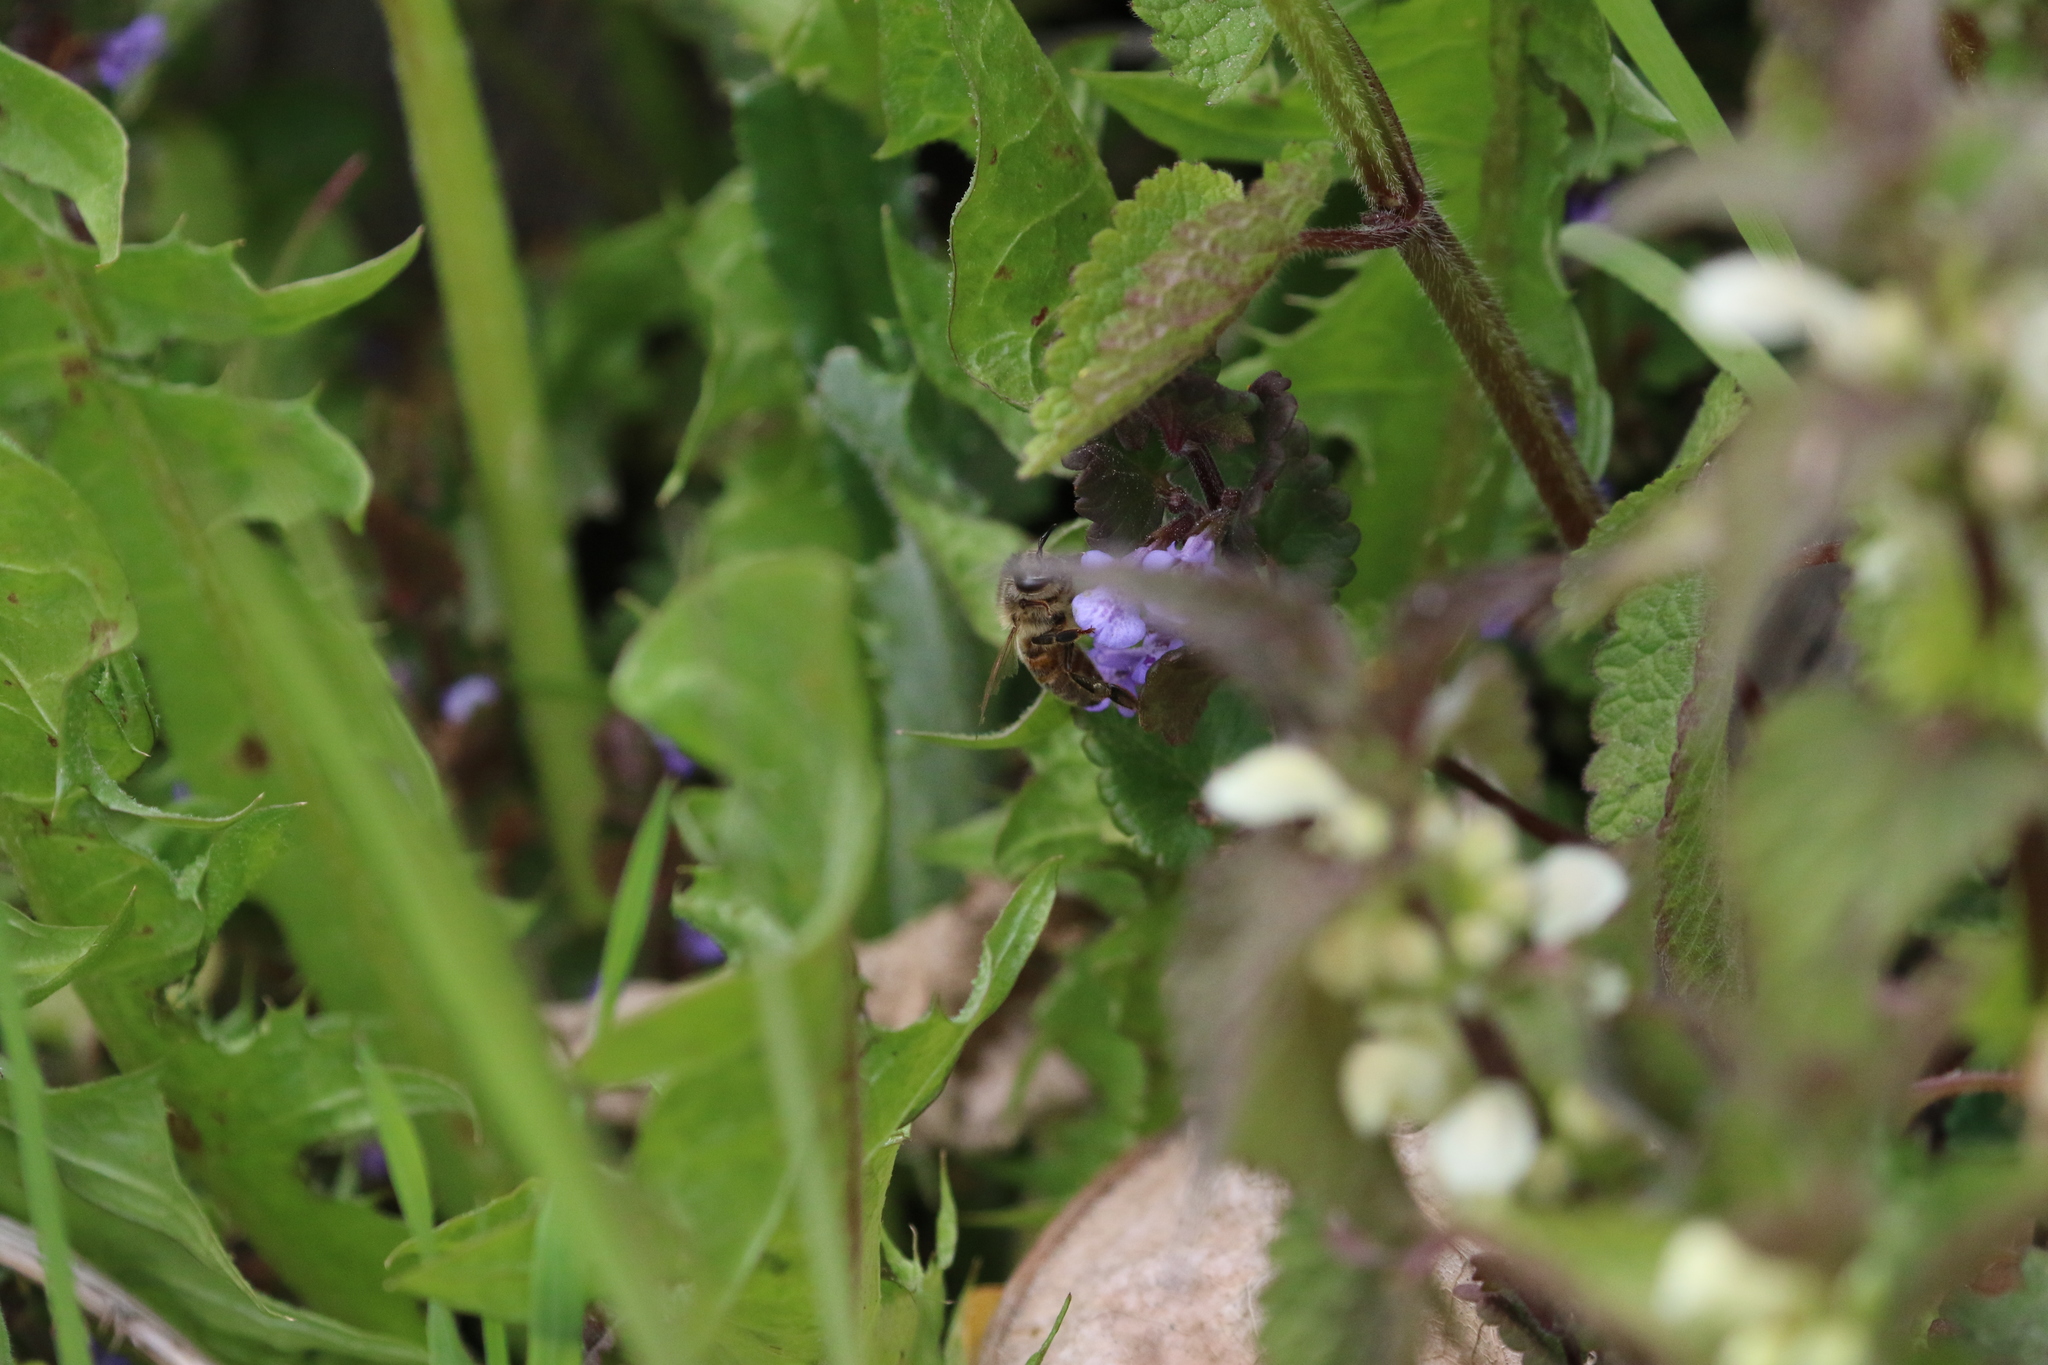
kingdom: Animalia
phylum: Arthropoda
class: Insecta
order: Hymenoptera
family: Apidae
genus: Apis
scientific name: Apis mellifera
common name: Honey bee
